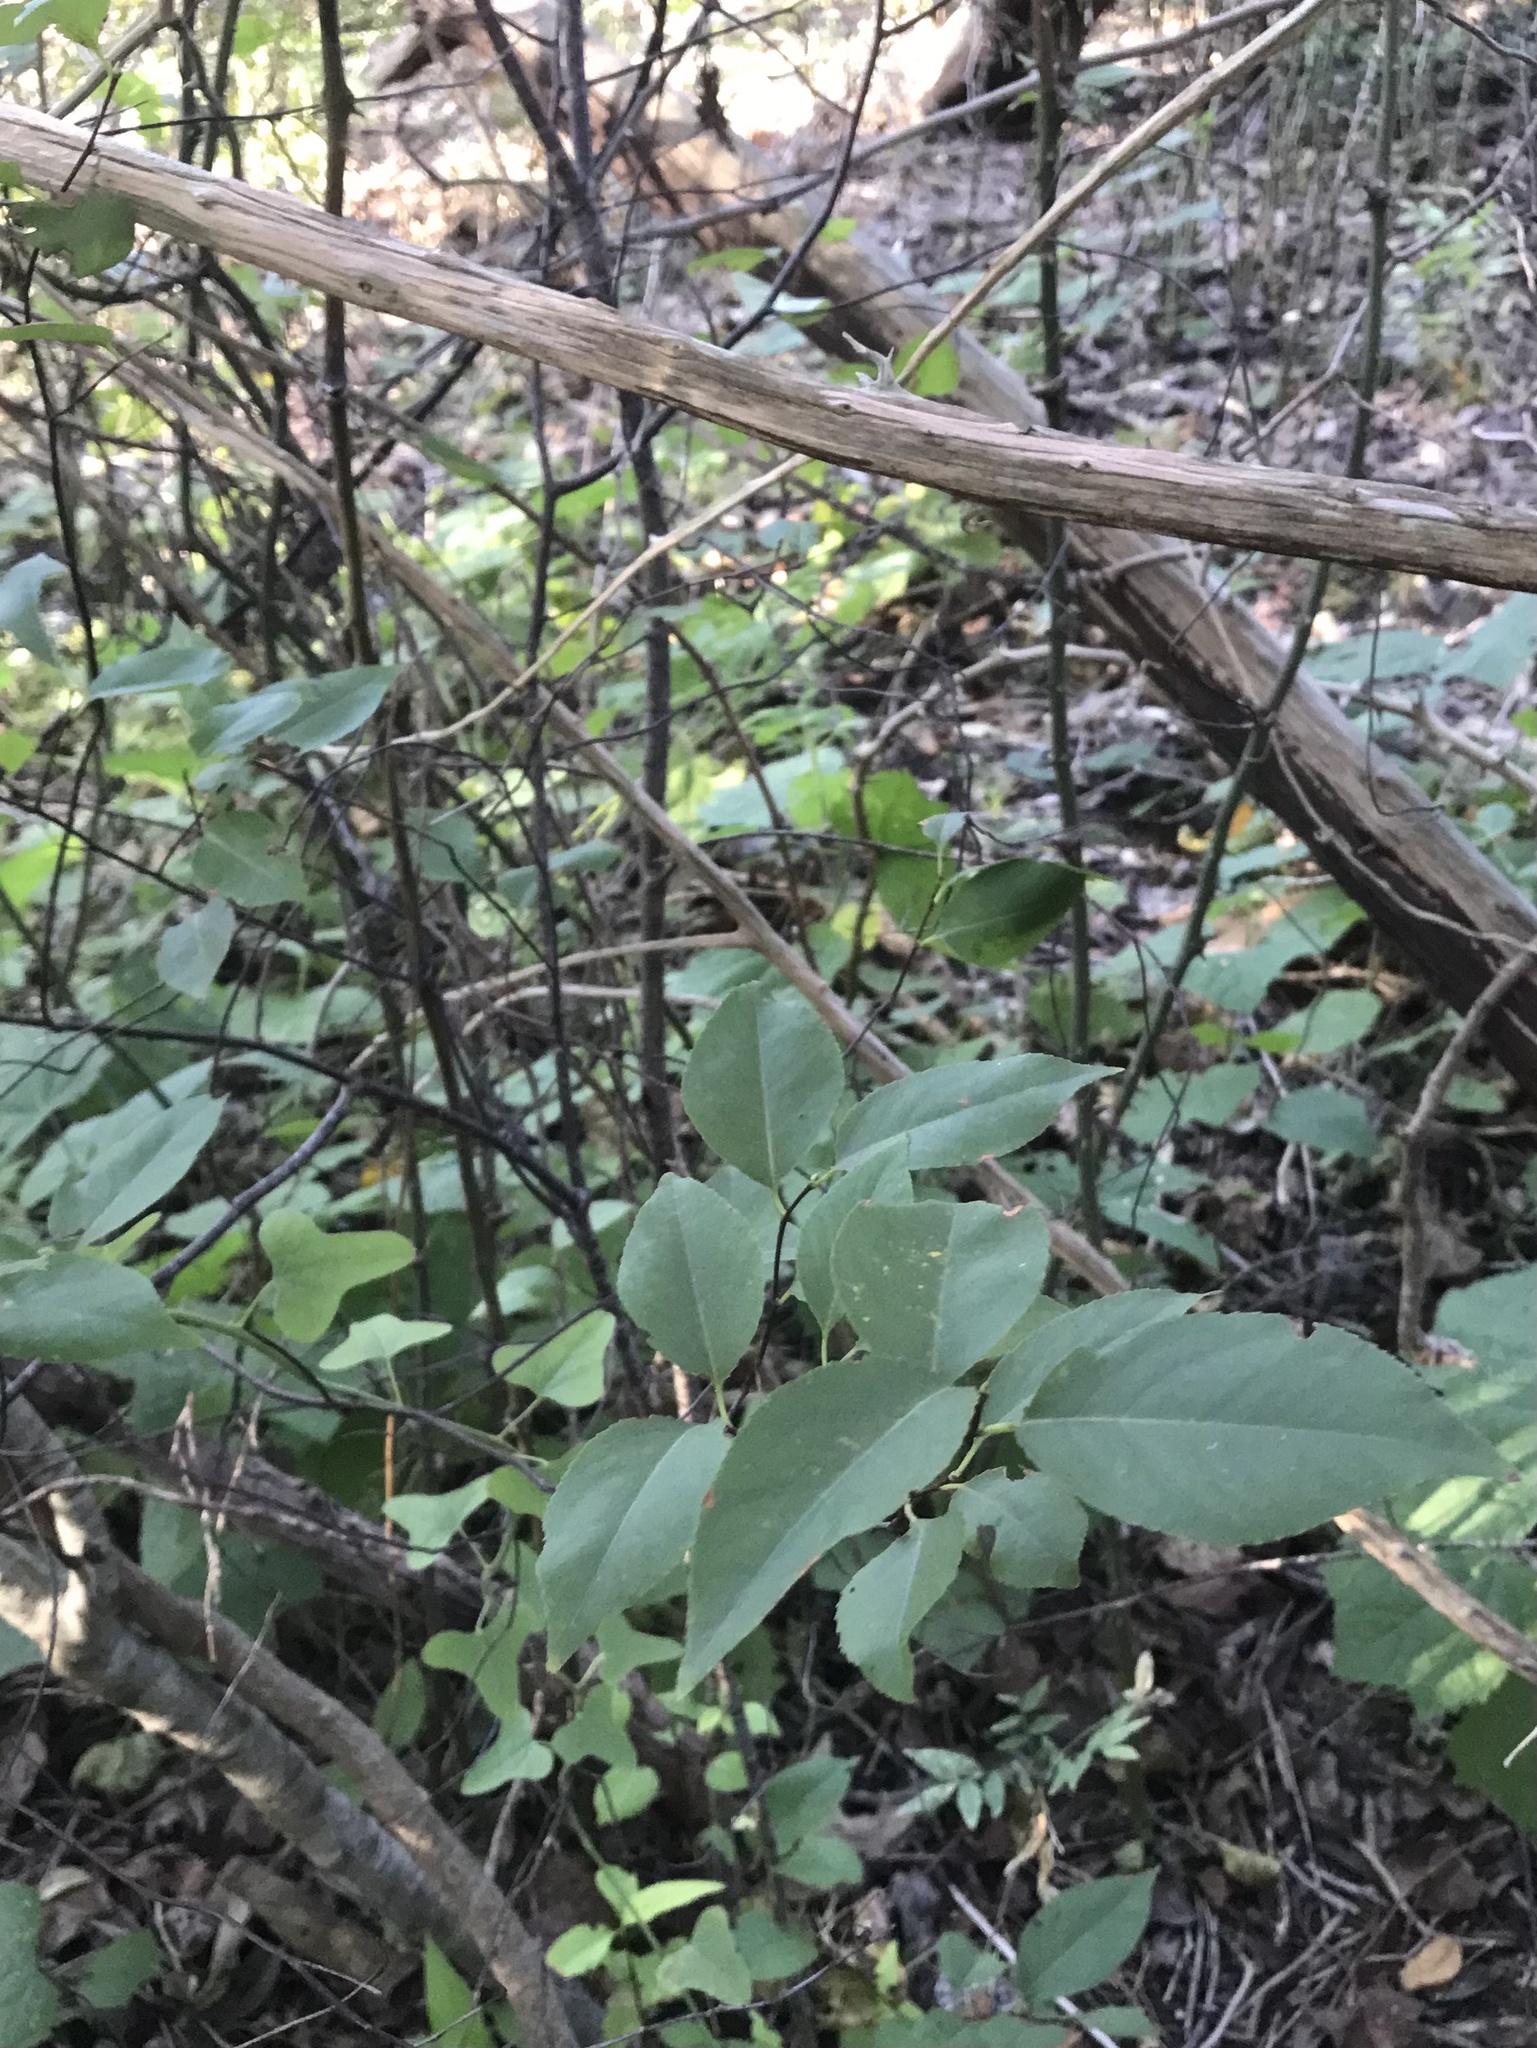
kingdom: Plantae
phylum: Tracheophyta
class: Magnoliopsida
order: Rosales
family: Rosaceae
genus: Prunus
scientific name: Prunus serotina
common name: Black cherry
